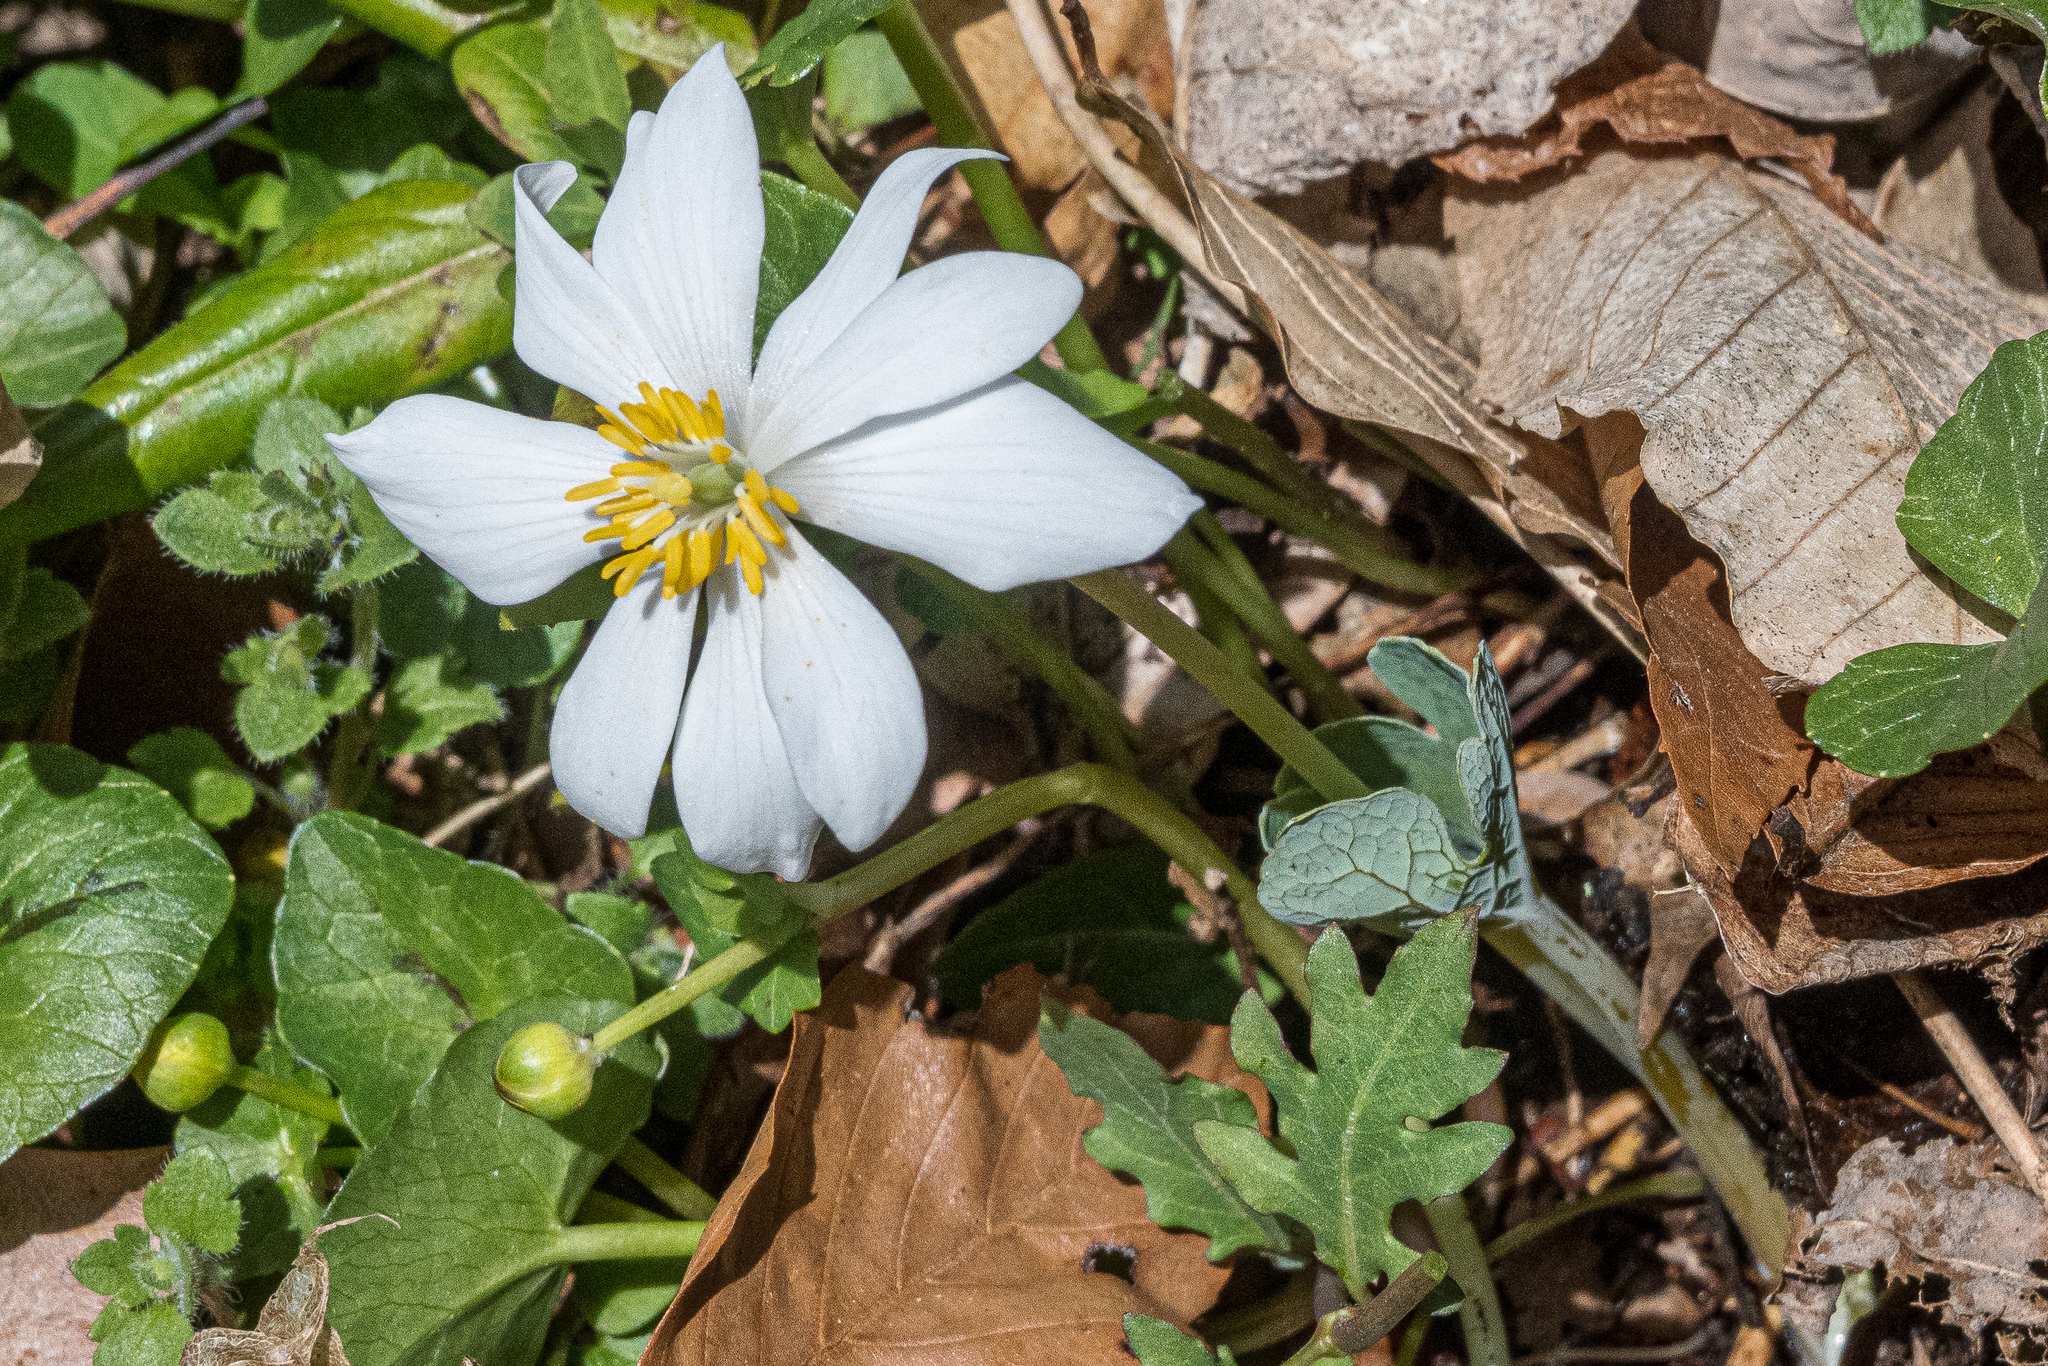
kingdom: Plantae
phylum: Tracheophyta
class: Magnoliopsida
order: Ranunculales
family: Papaveraceae
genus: Sanguinaria
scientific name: Sanguinaria canadensis
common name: Bloodroot
